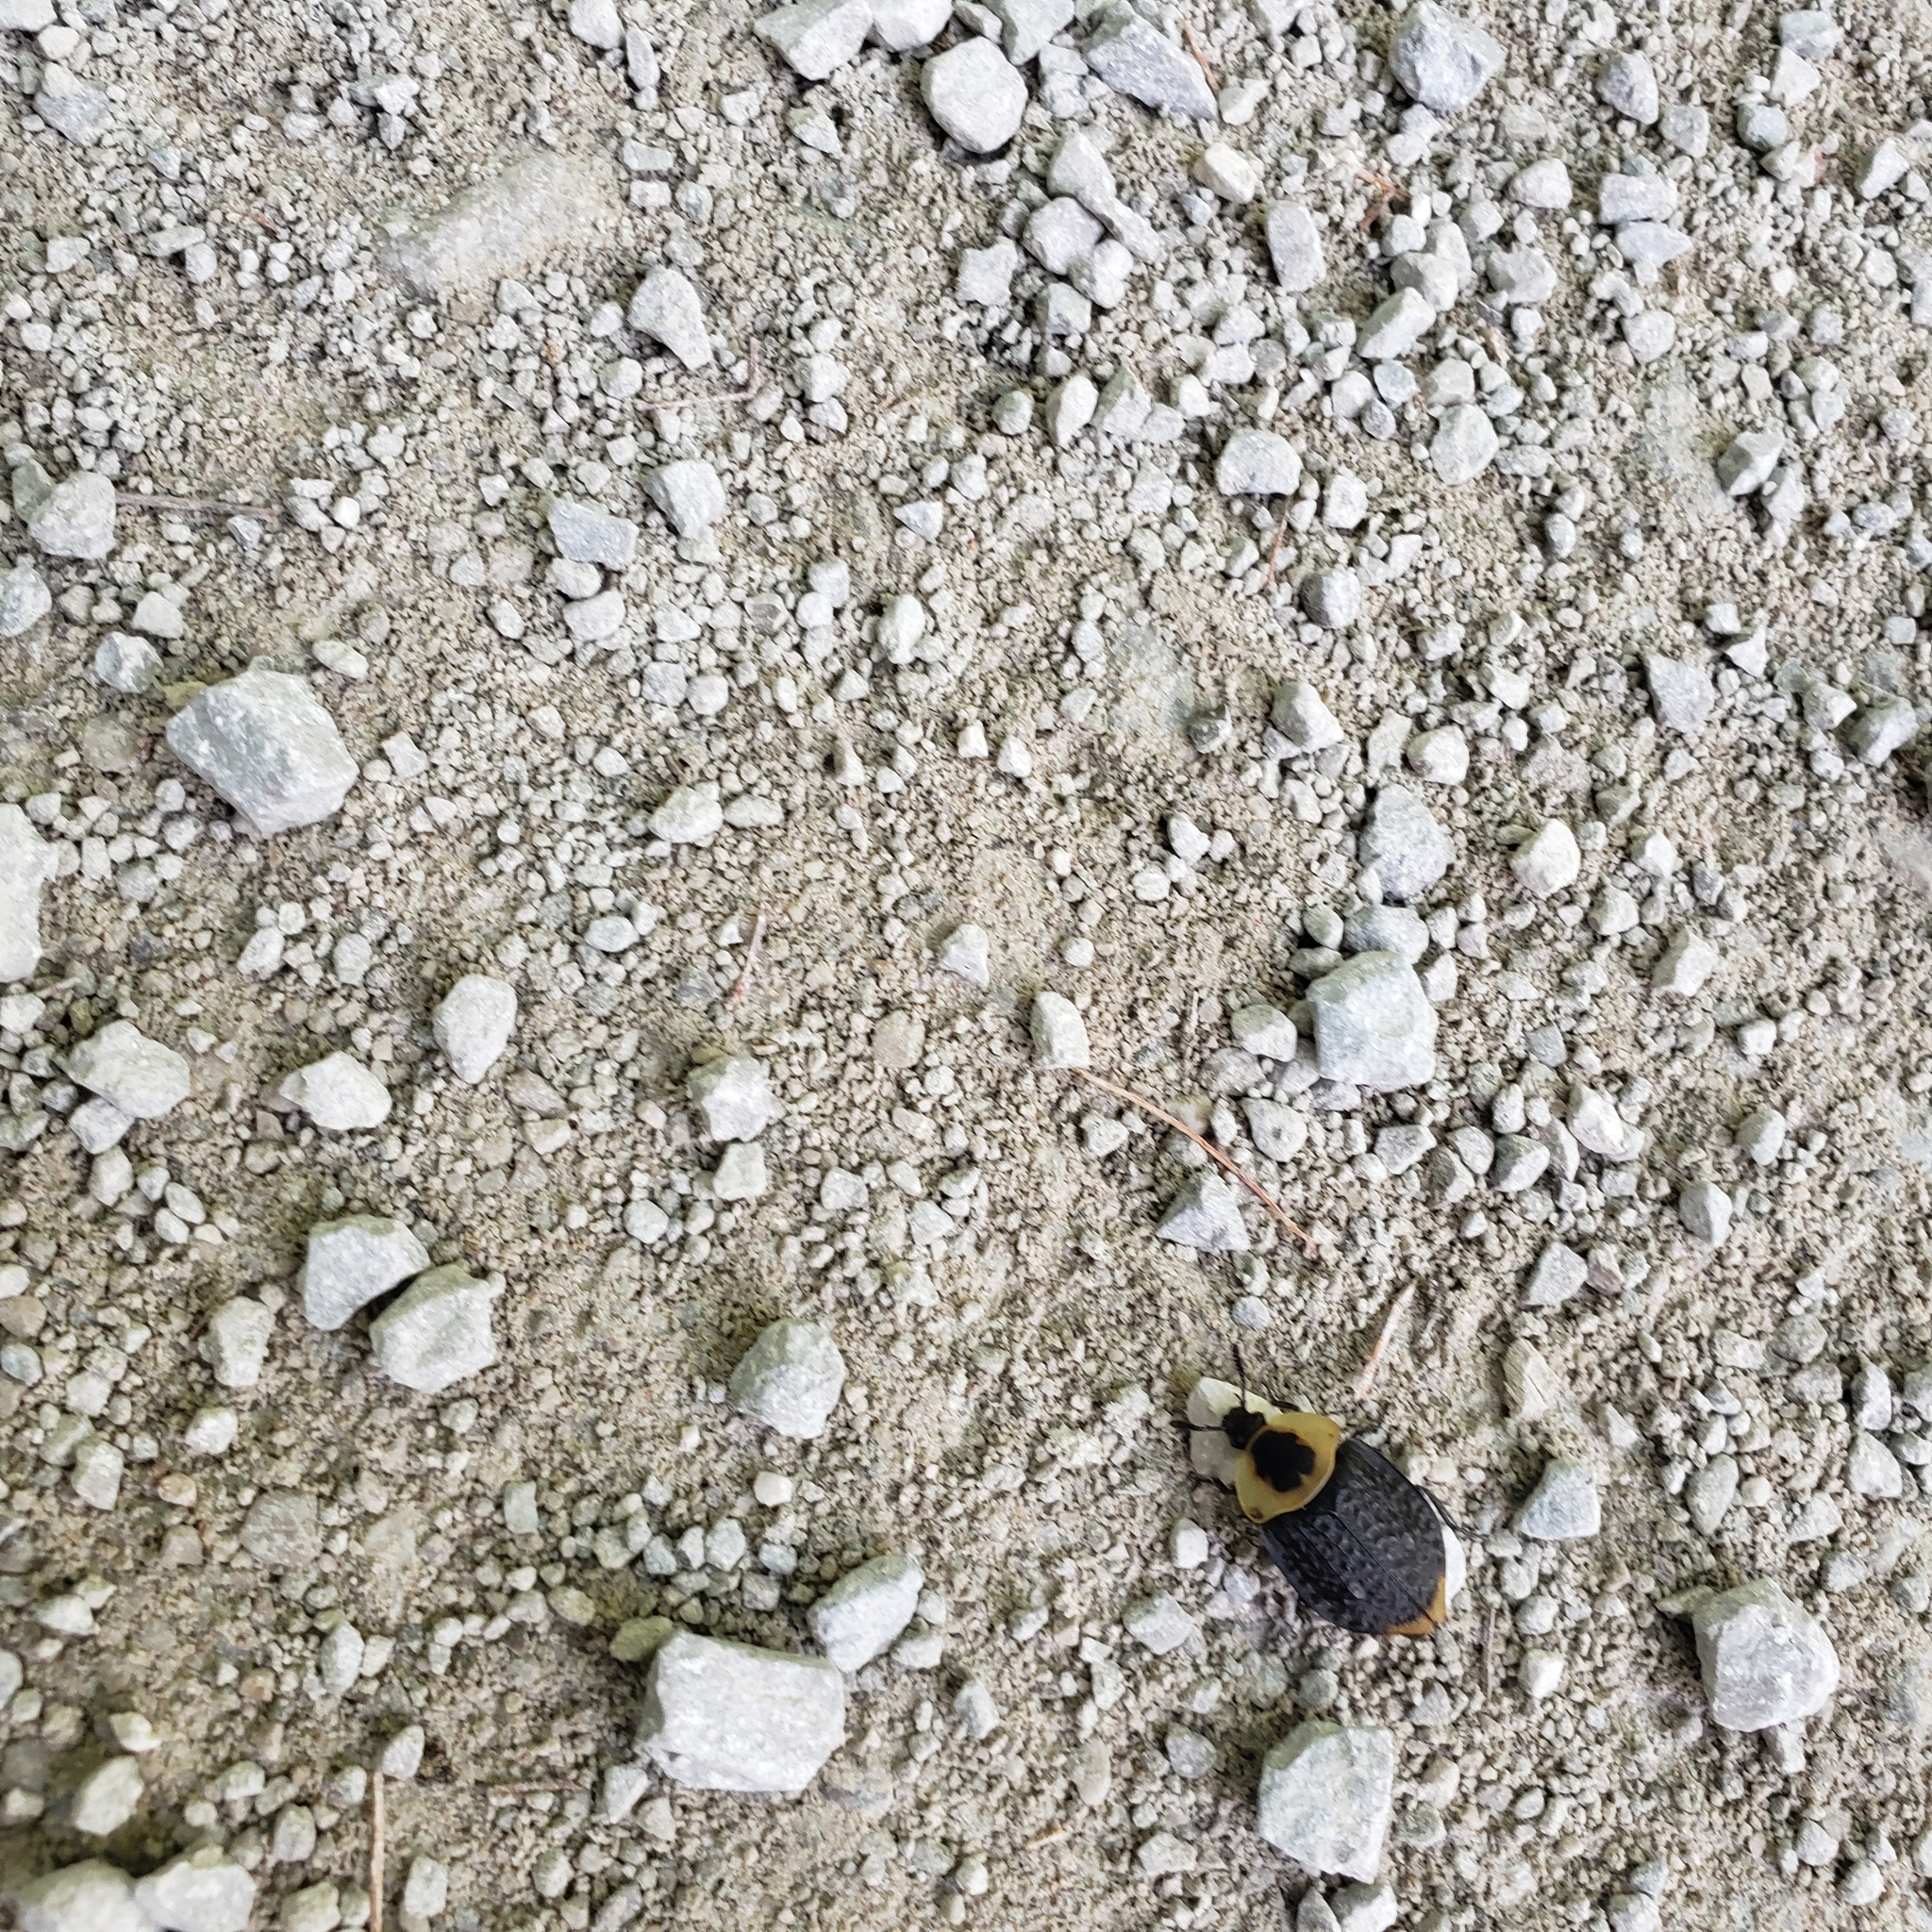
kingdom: Animalia
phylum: Arthropoda
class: Insecta
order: Coleoptera
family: Staphylinidae
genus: Necrophila
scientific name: Necrophila americana
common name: American carrion beetle
